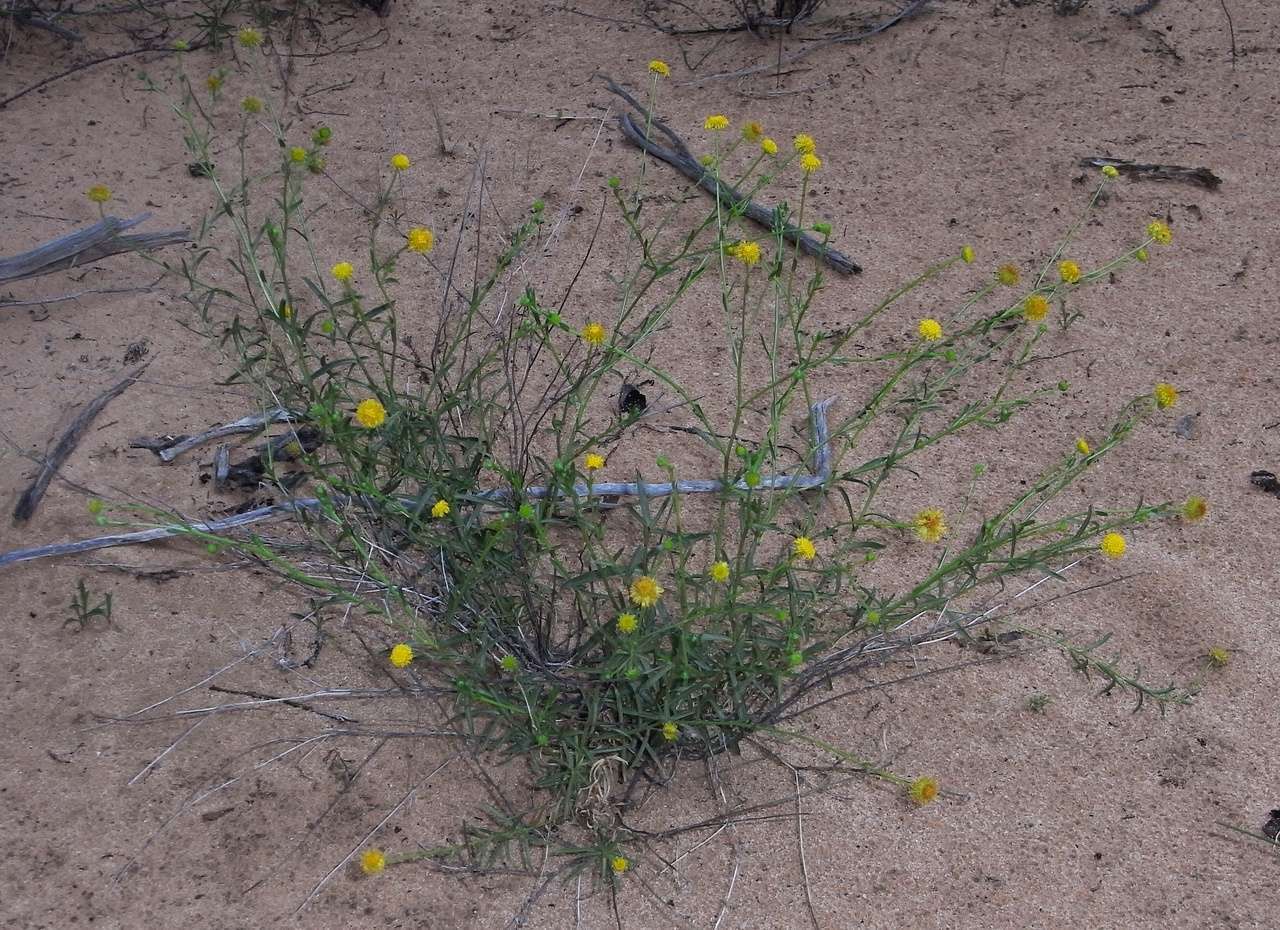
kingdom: Plantae
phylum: Tracheophyta
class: Magnoliopsida
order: Asterales
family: Asteraceae
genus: Calotis
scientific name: Calotis erinacea
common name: Tangled bur daisy
